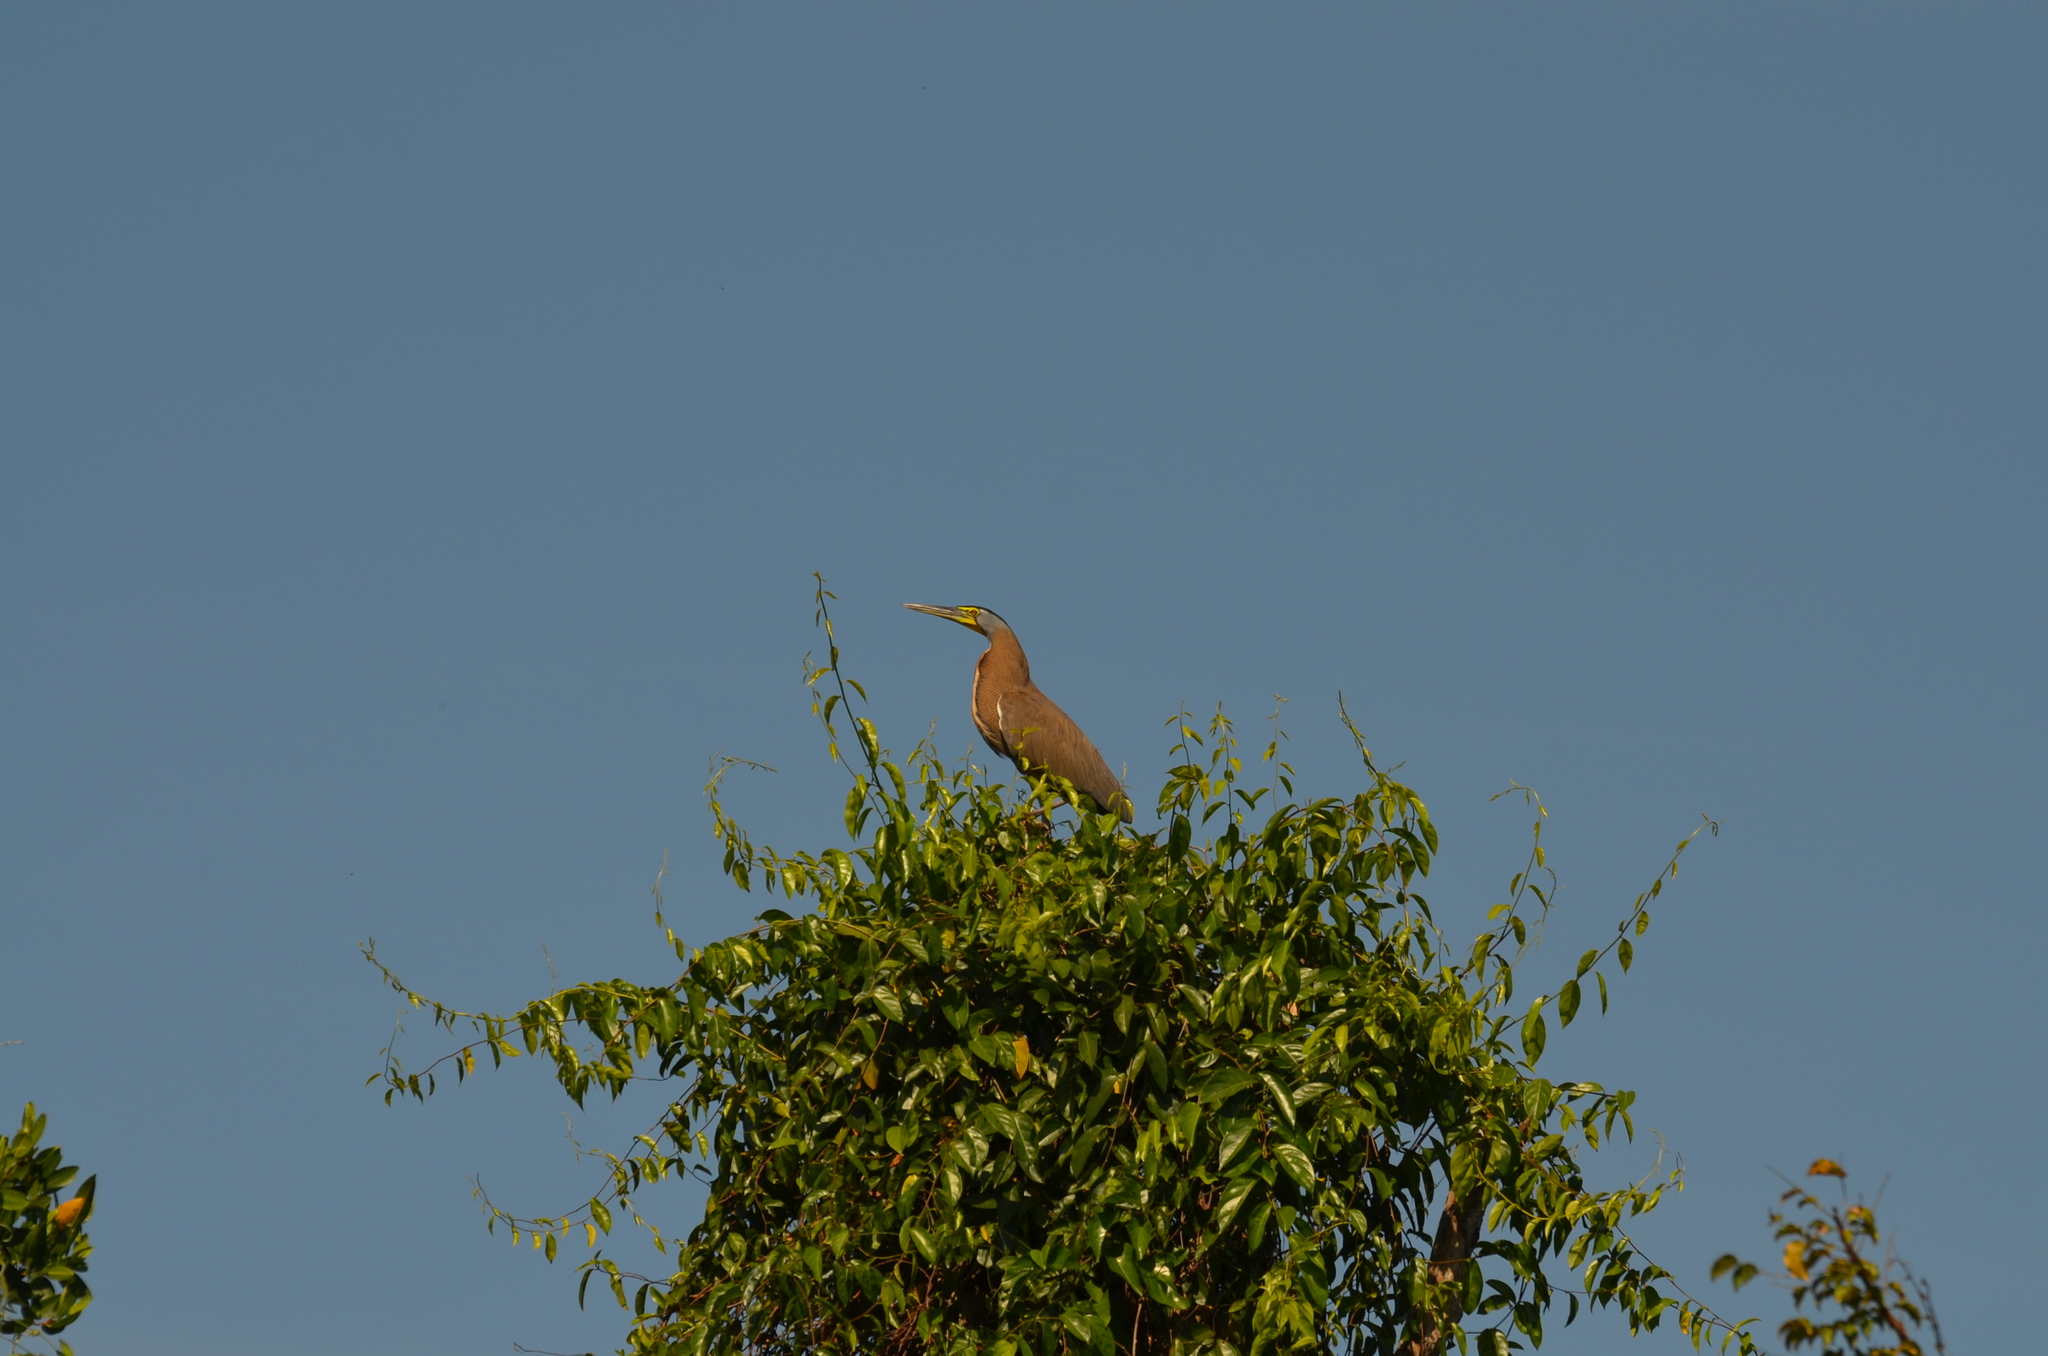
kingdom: Animalia
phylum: Chordata
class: Aves
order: Pelecaniformes
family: Ardeidae
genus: Tigrisoma
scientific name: Tigrisoma mexicanum
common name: Bare-throated tiger-heron
